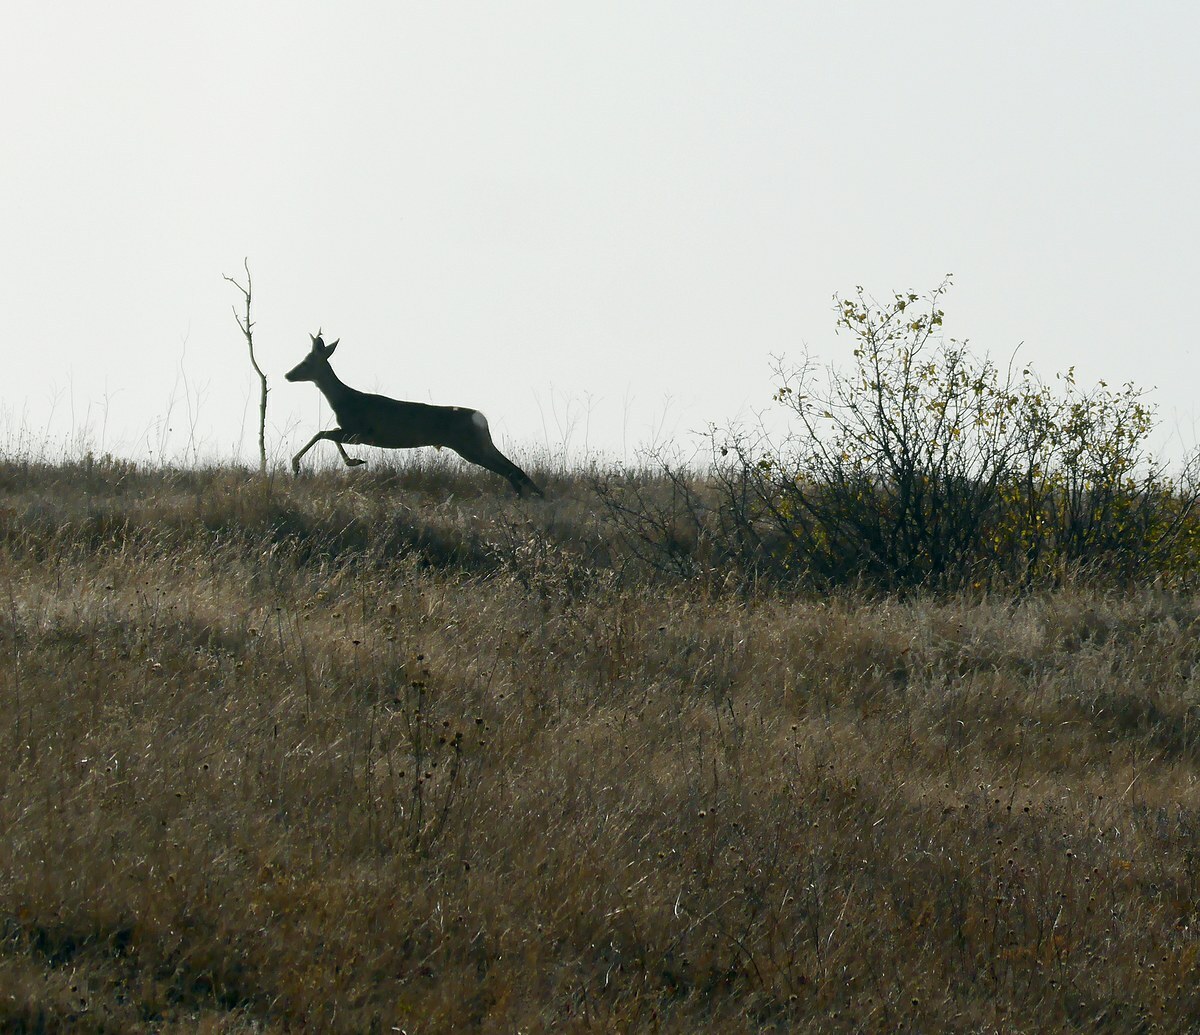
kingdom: Animalia
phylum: Chordata
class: Mammalia
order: Artiodactyla
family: Cervidae
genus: Capreolus
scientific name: Capreolus capreolus
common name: Western roe deer
